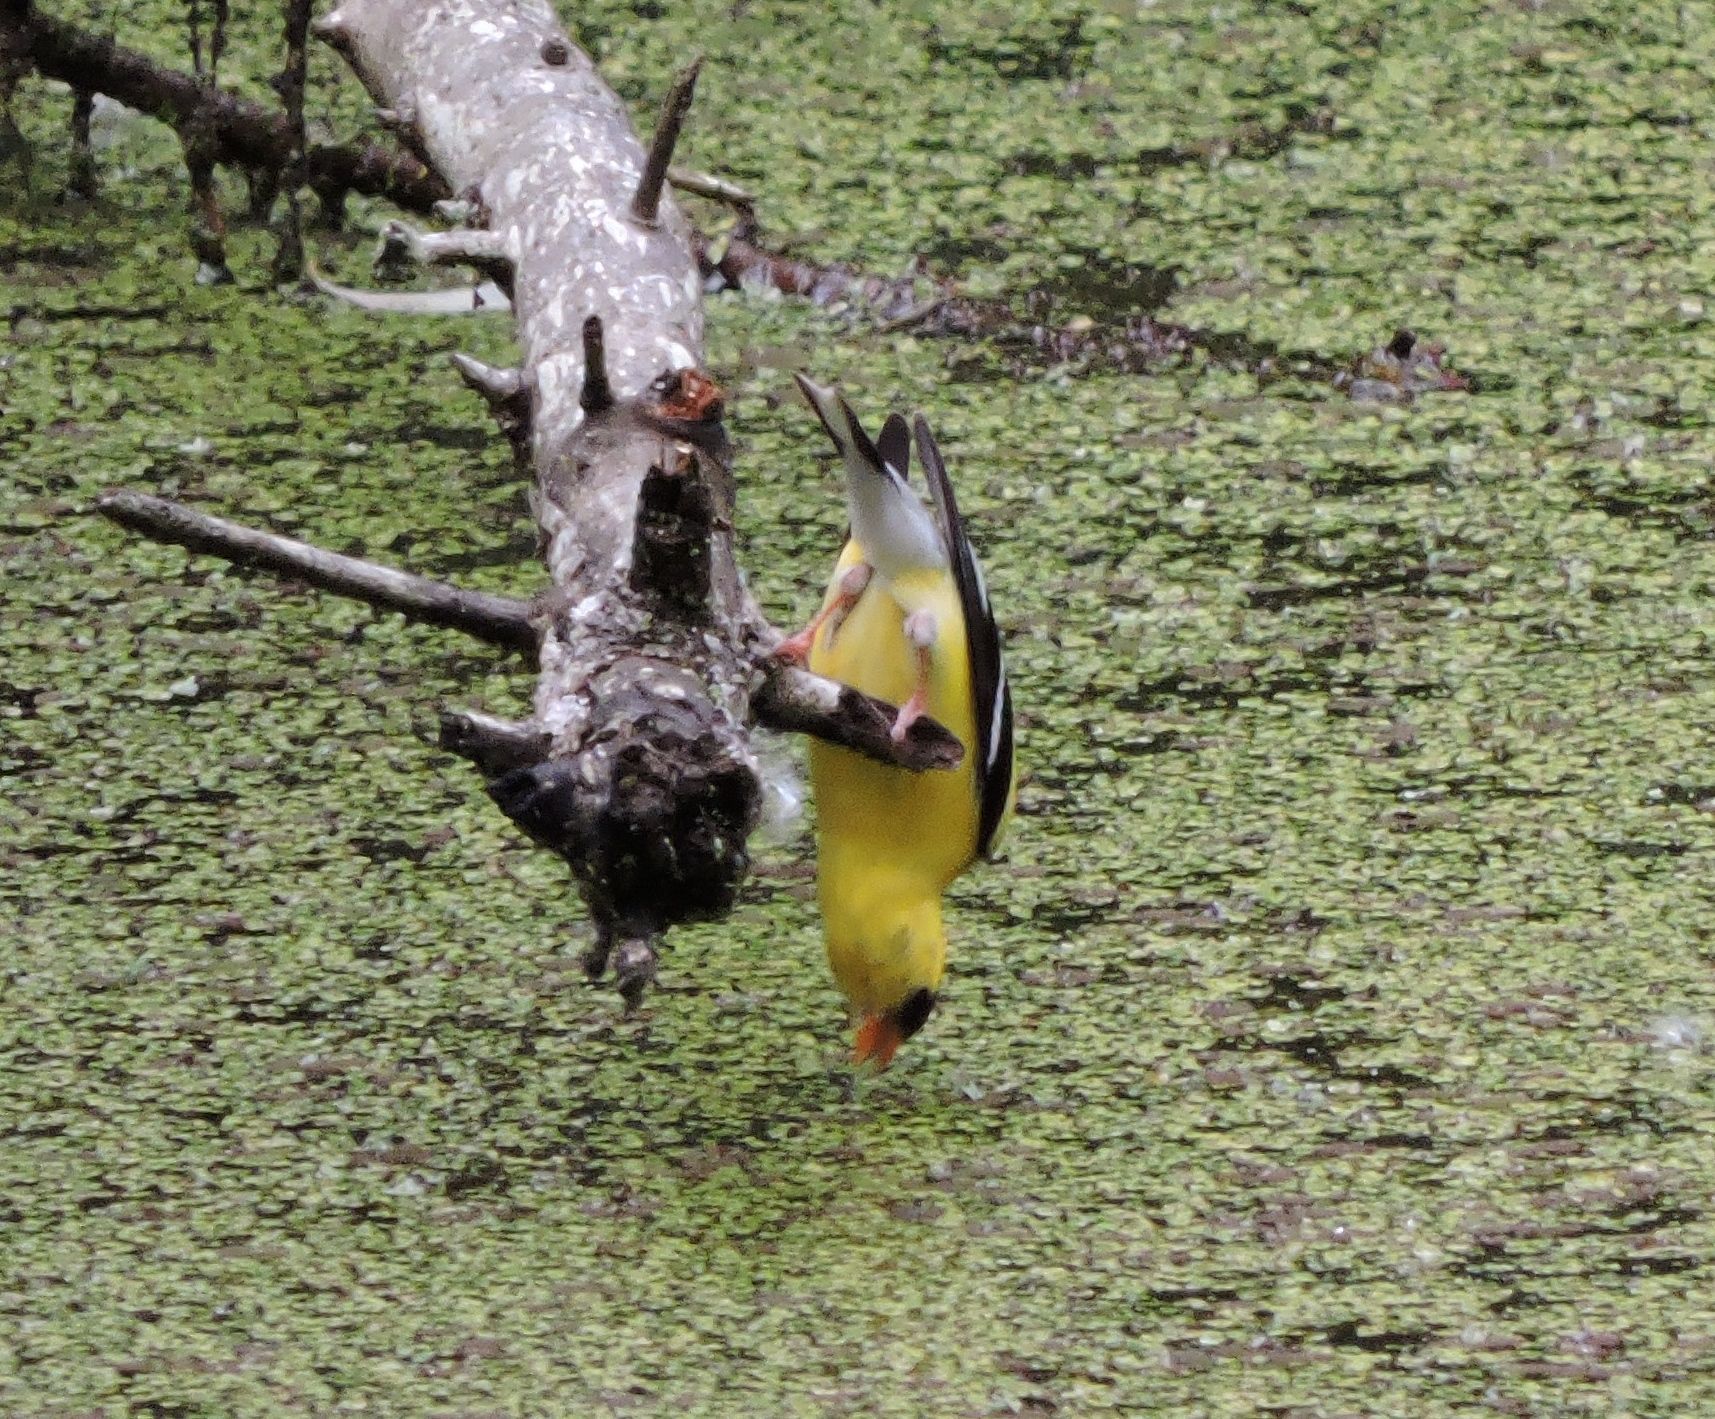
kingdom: Animalia
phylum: Chordata
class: Aves
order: Passeriformes
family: Fringillidae
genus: Spinus
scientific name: Spinus tristis
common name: American goldfinch
